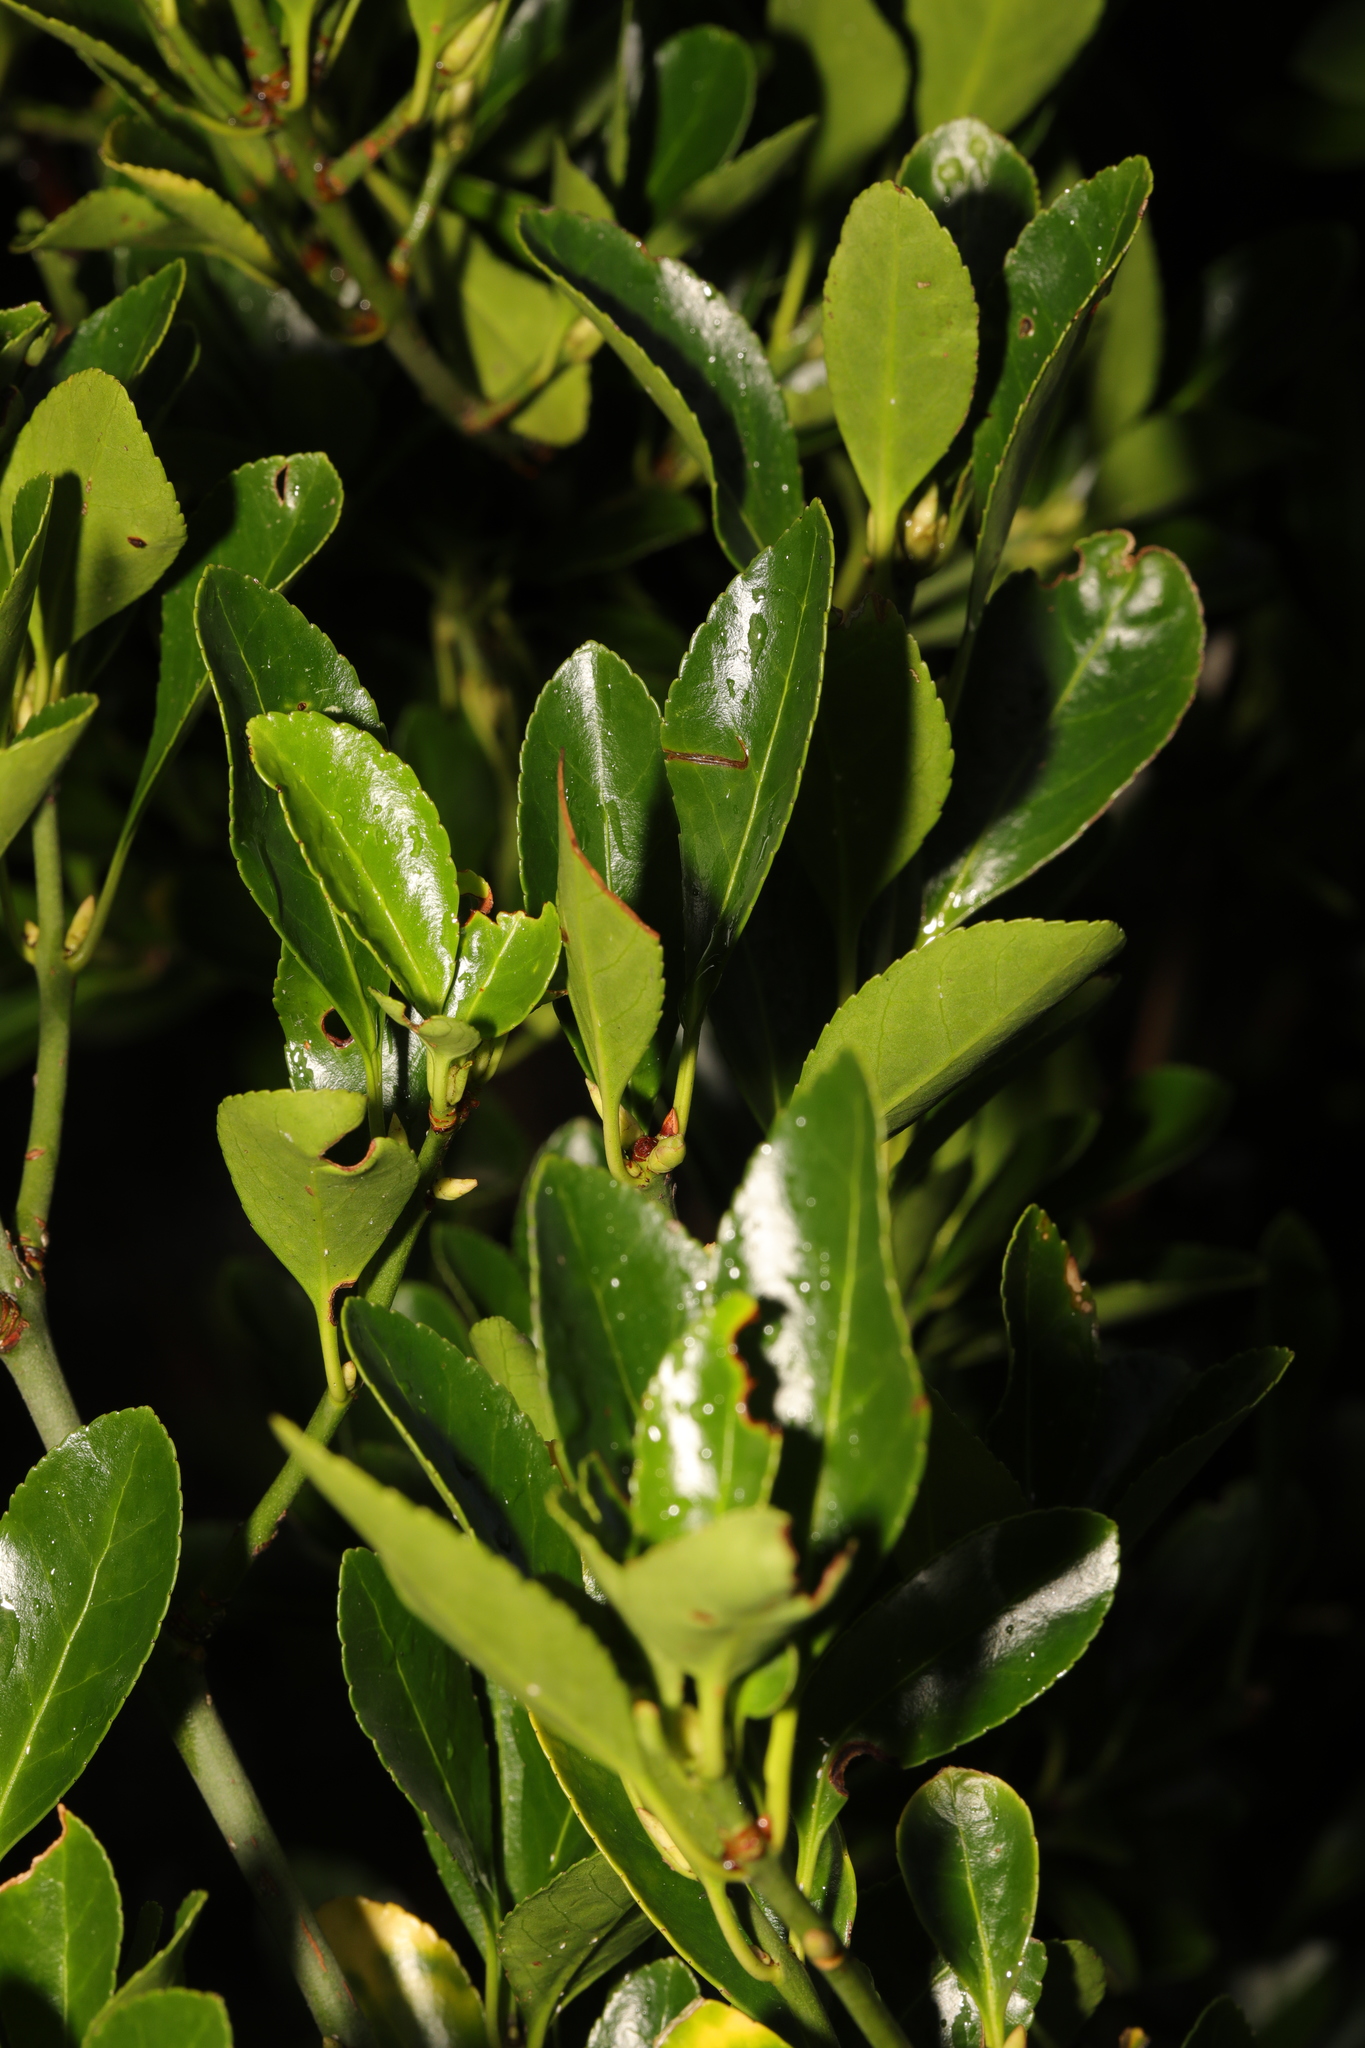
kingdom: Plantae
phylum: Tracheophyta
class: Magnoliopsida
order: Celastrales
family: Celastraceae
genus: Euonymus
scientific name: Euonymus japonicus
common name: Japanese spindletree
